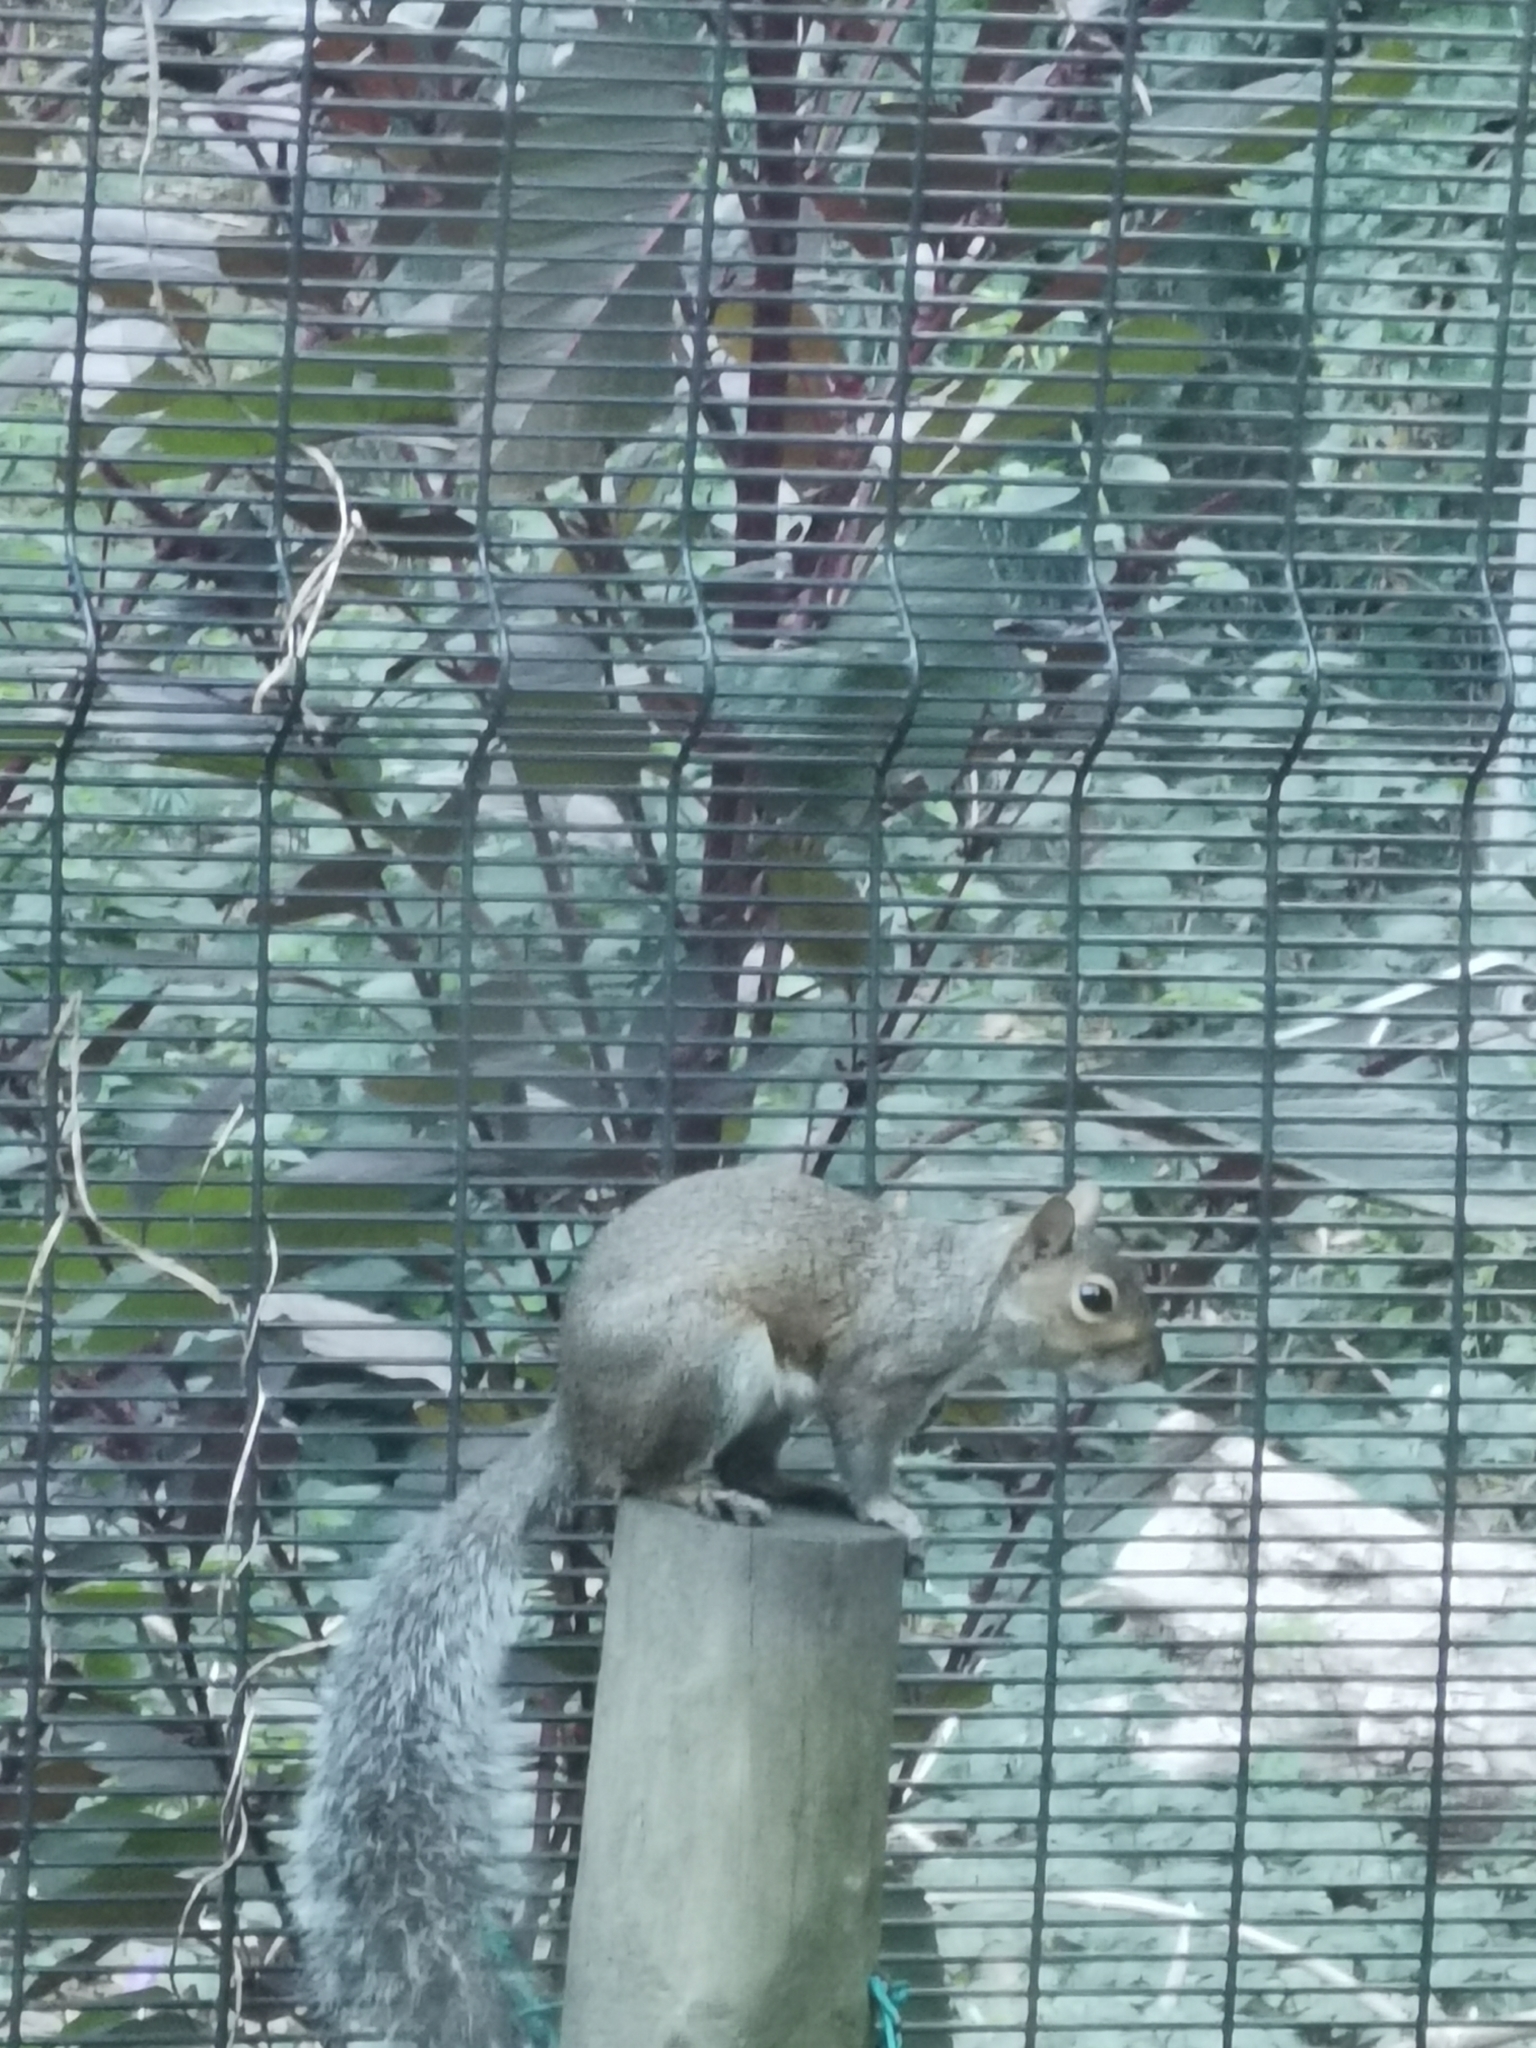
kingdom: Animalia
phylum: Chordata
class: Mammalia
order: Rodentia
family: Sciuridae
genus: Sciurus
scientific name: Sciurus carolinensis
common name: Eastern gray squirrel
